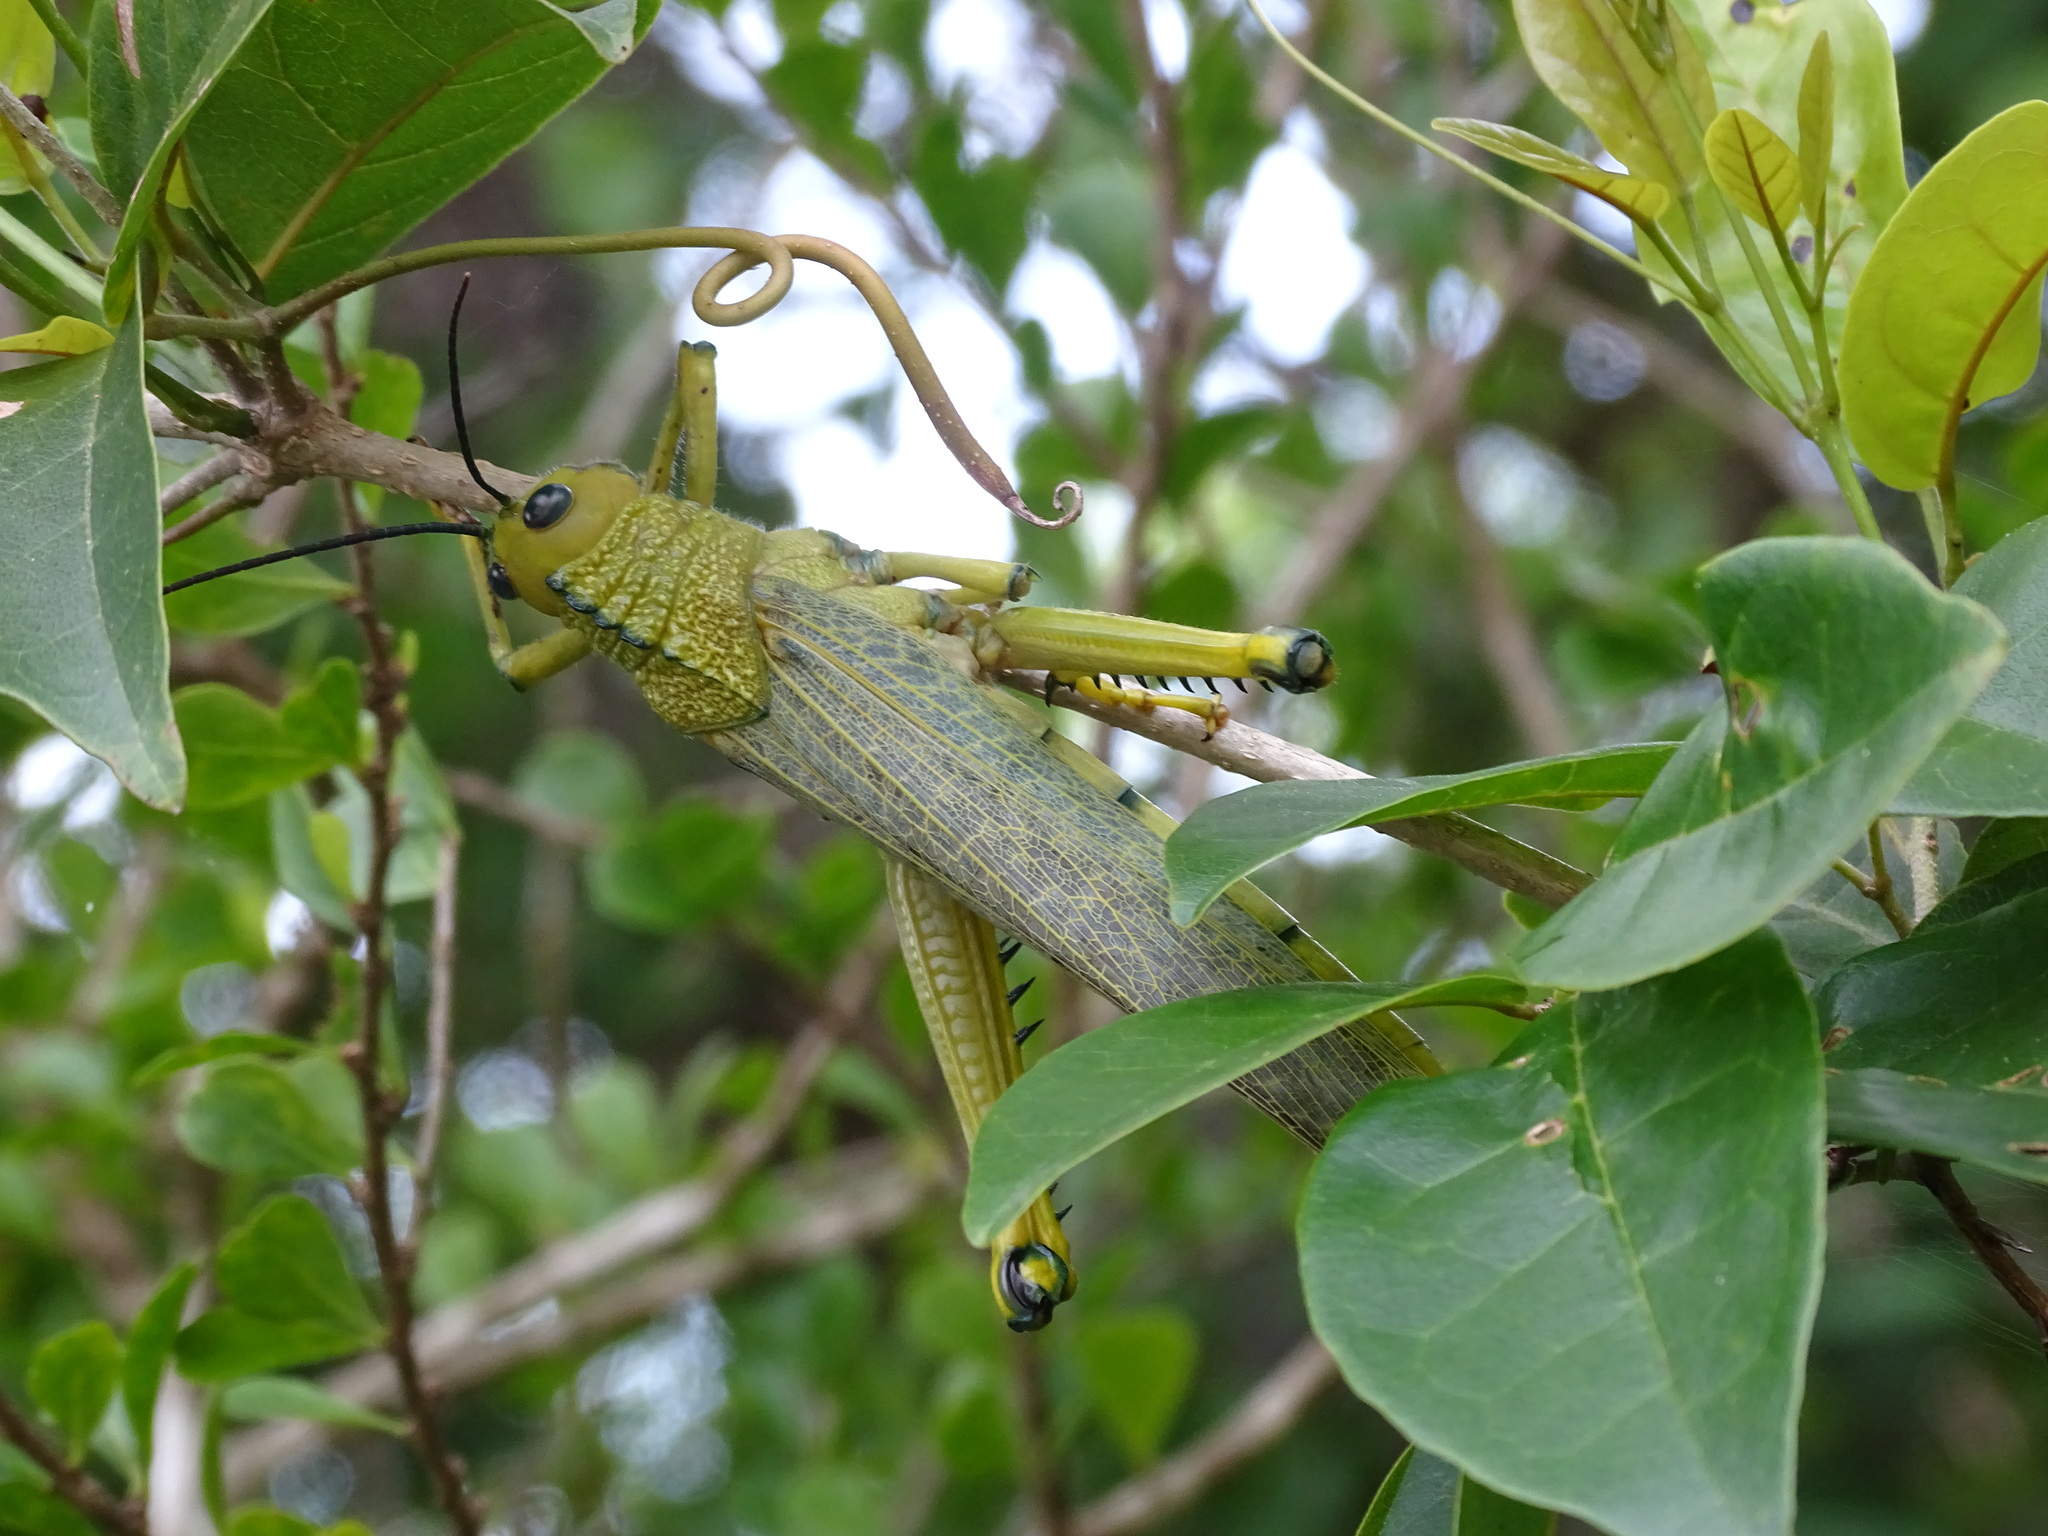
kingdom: Animalia
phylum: Arthropoda
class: Insecta
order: Orthoptera
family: Romaleidae
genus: Tropidacris
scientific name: Tropidacris cristata
